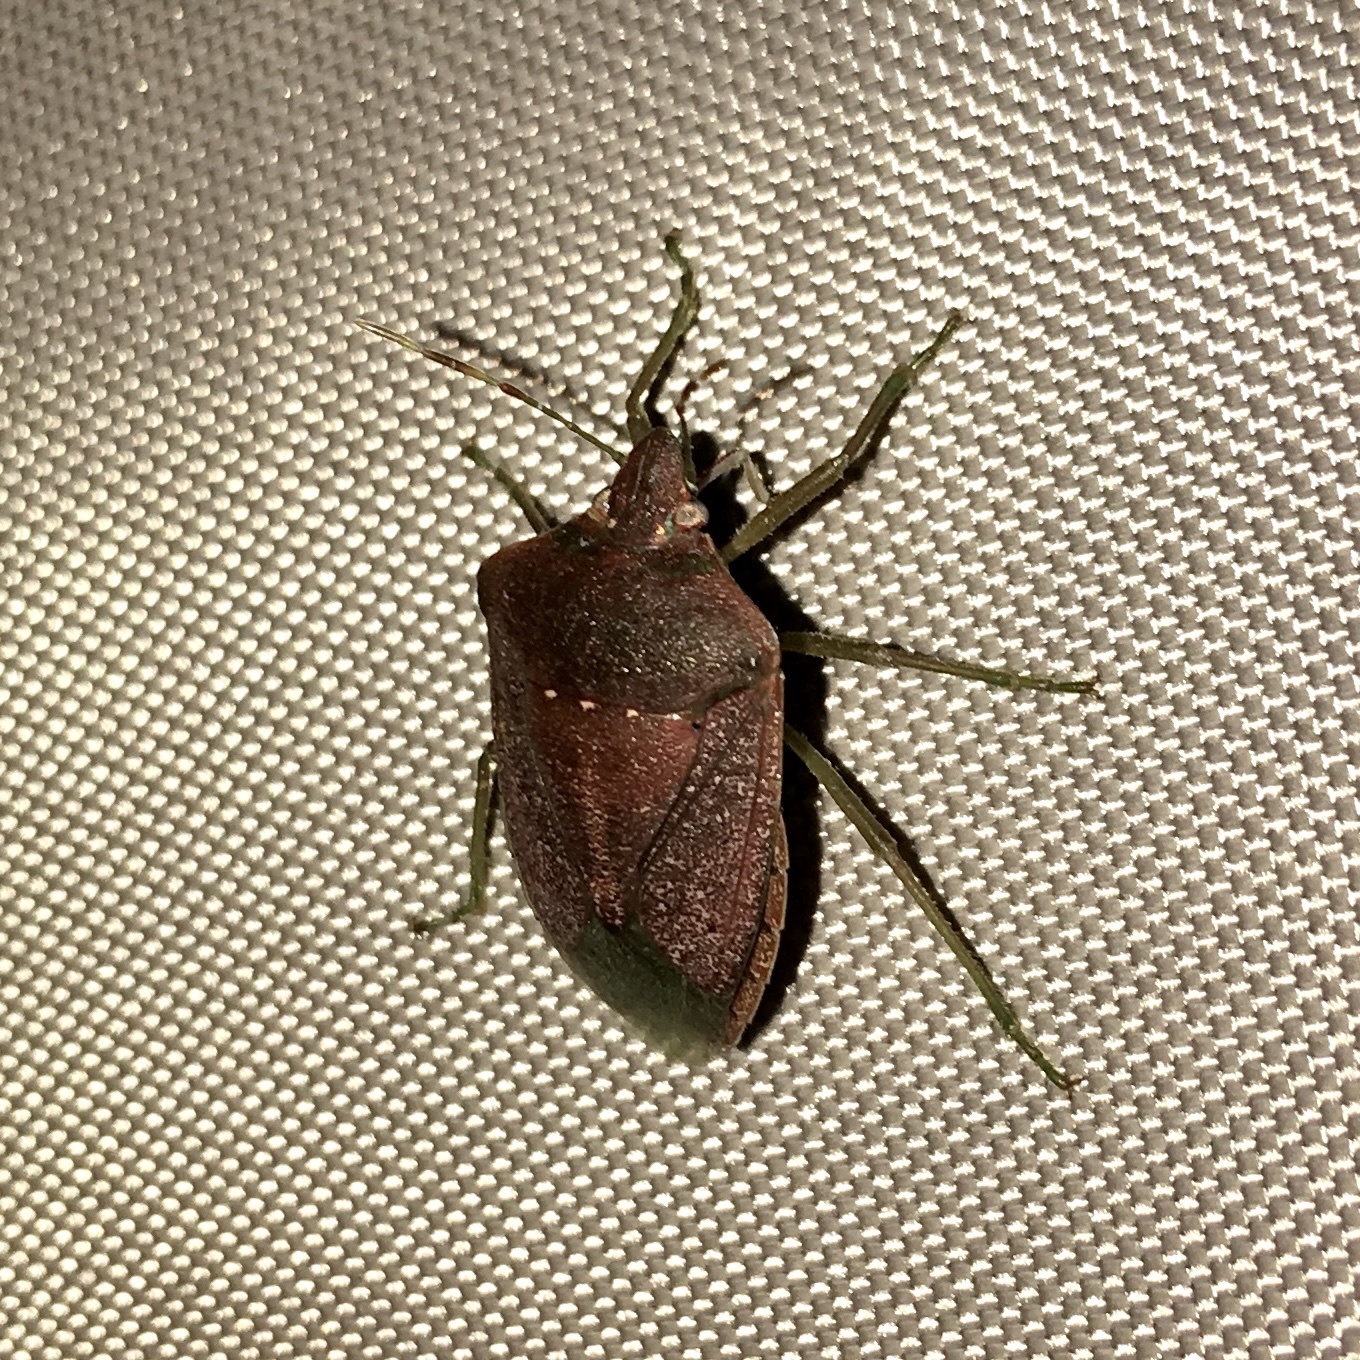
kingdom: Animalia
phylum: Arthropoda
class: Insecta
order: Hemiptera
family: Pentatomidae
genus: Nezara
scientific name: Nezara viridula
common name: Southern green stink bug
